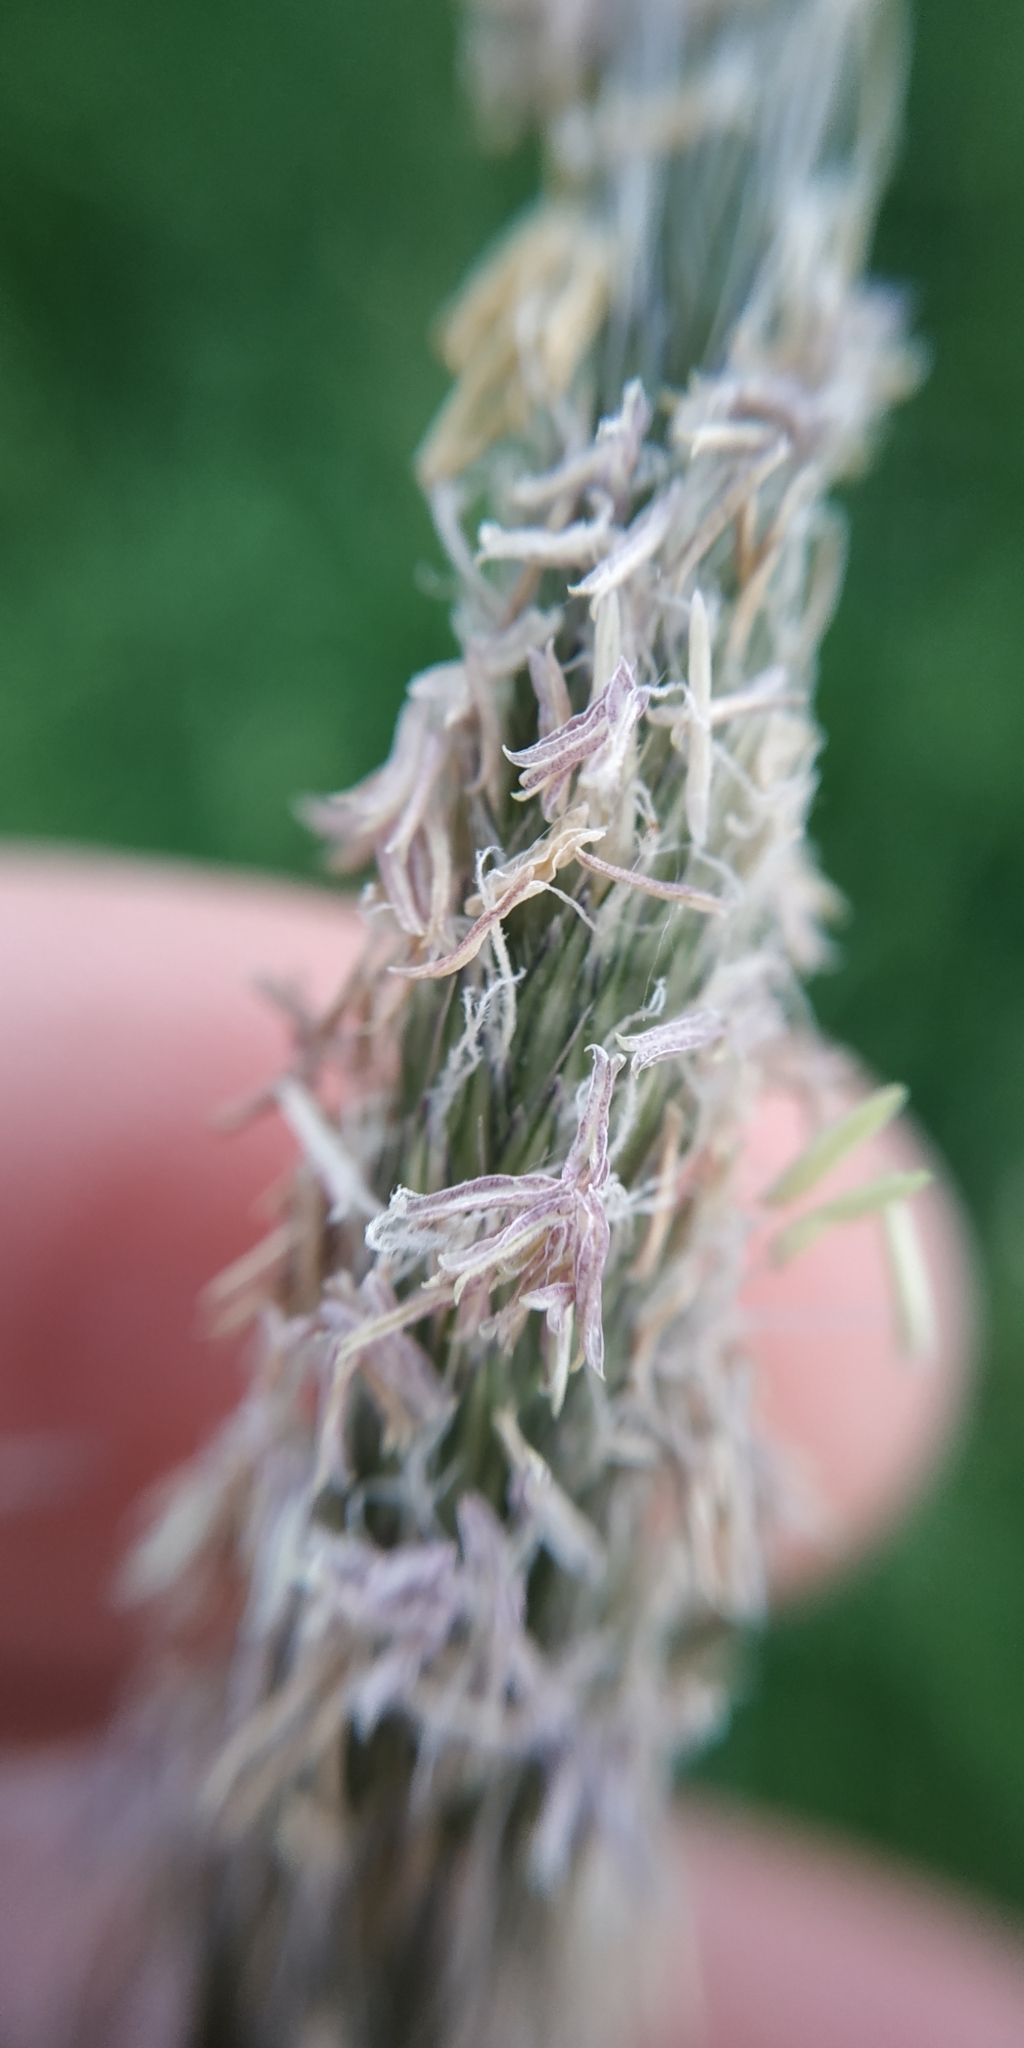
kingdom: Plantae
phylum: Tracheophyta
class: Liliopsida
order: Poales
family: Poaceae
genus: Alopecurus
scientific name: Alopecurus pratensis
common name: Meadow foxtail
